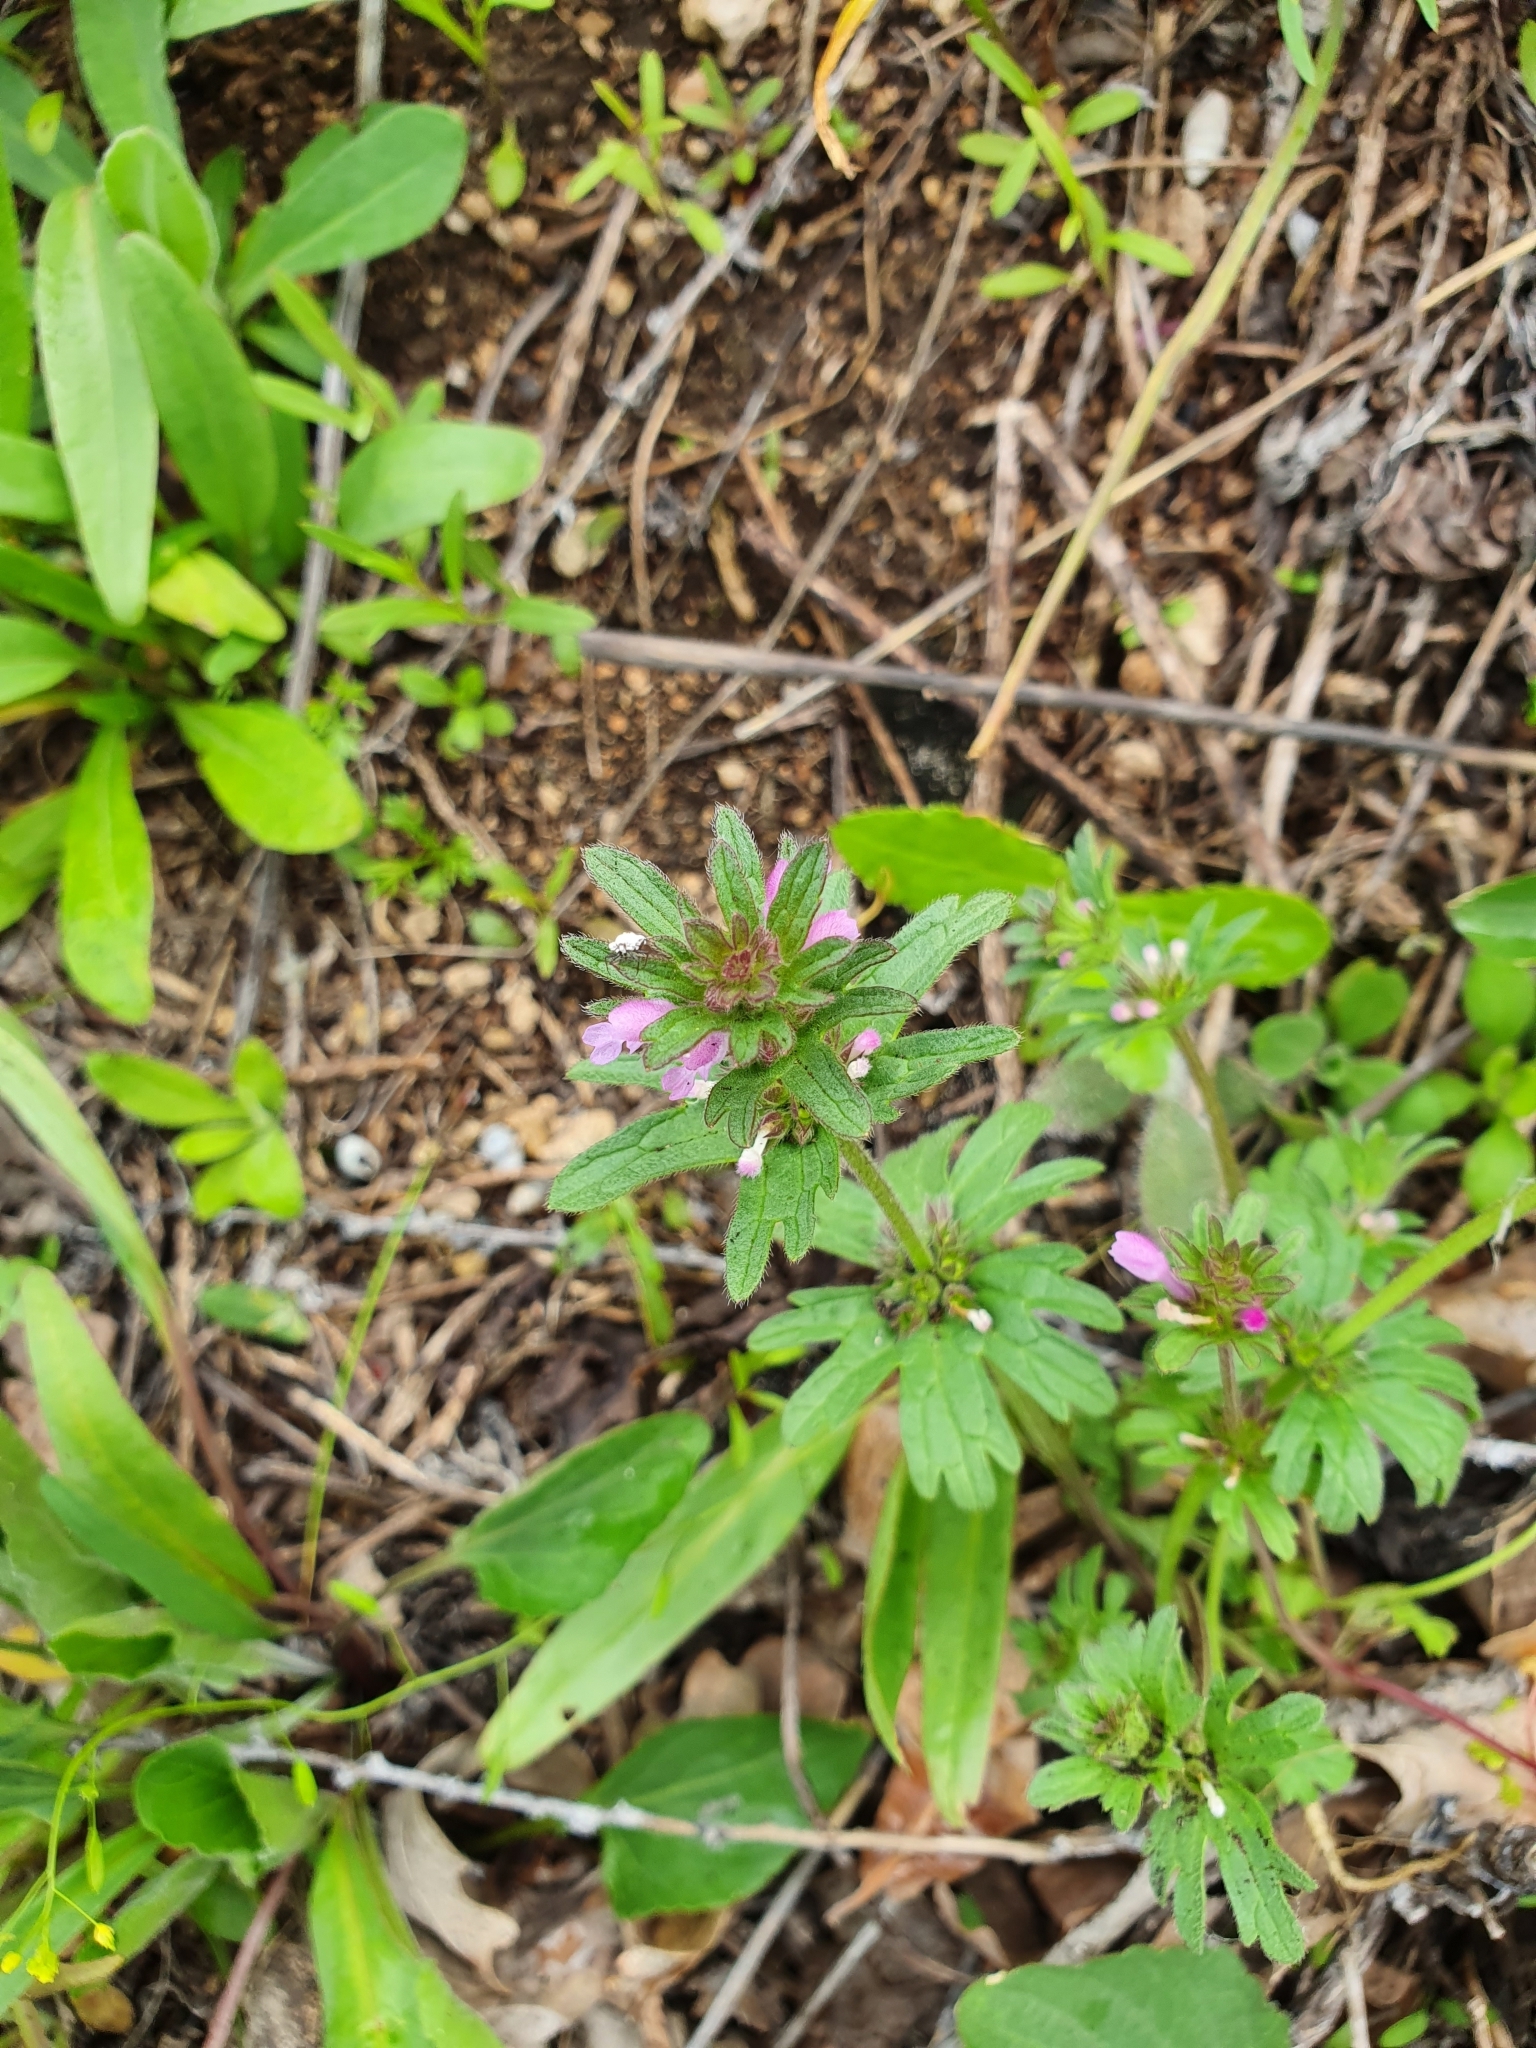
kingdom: Plantae
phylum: Tracheophyta
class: Magnoliopsida
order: Lamiales
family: Lamiaceae
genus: Lamium
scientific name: Lamium amplexicaule
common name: Henbit dead-nettle
